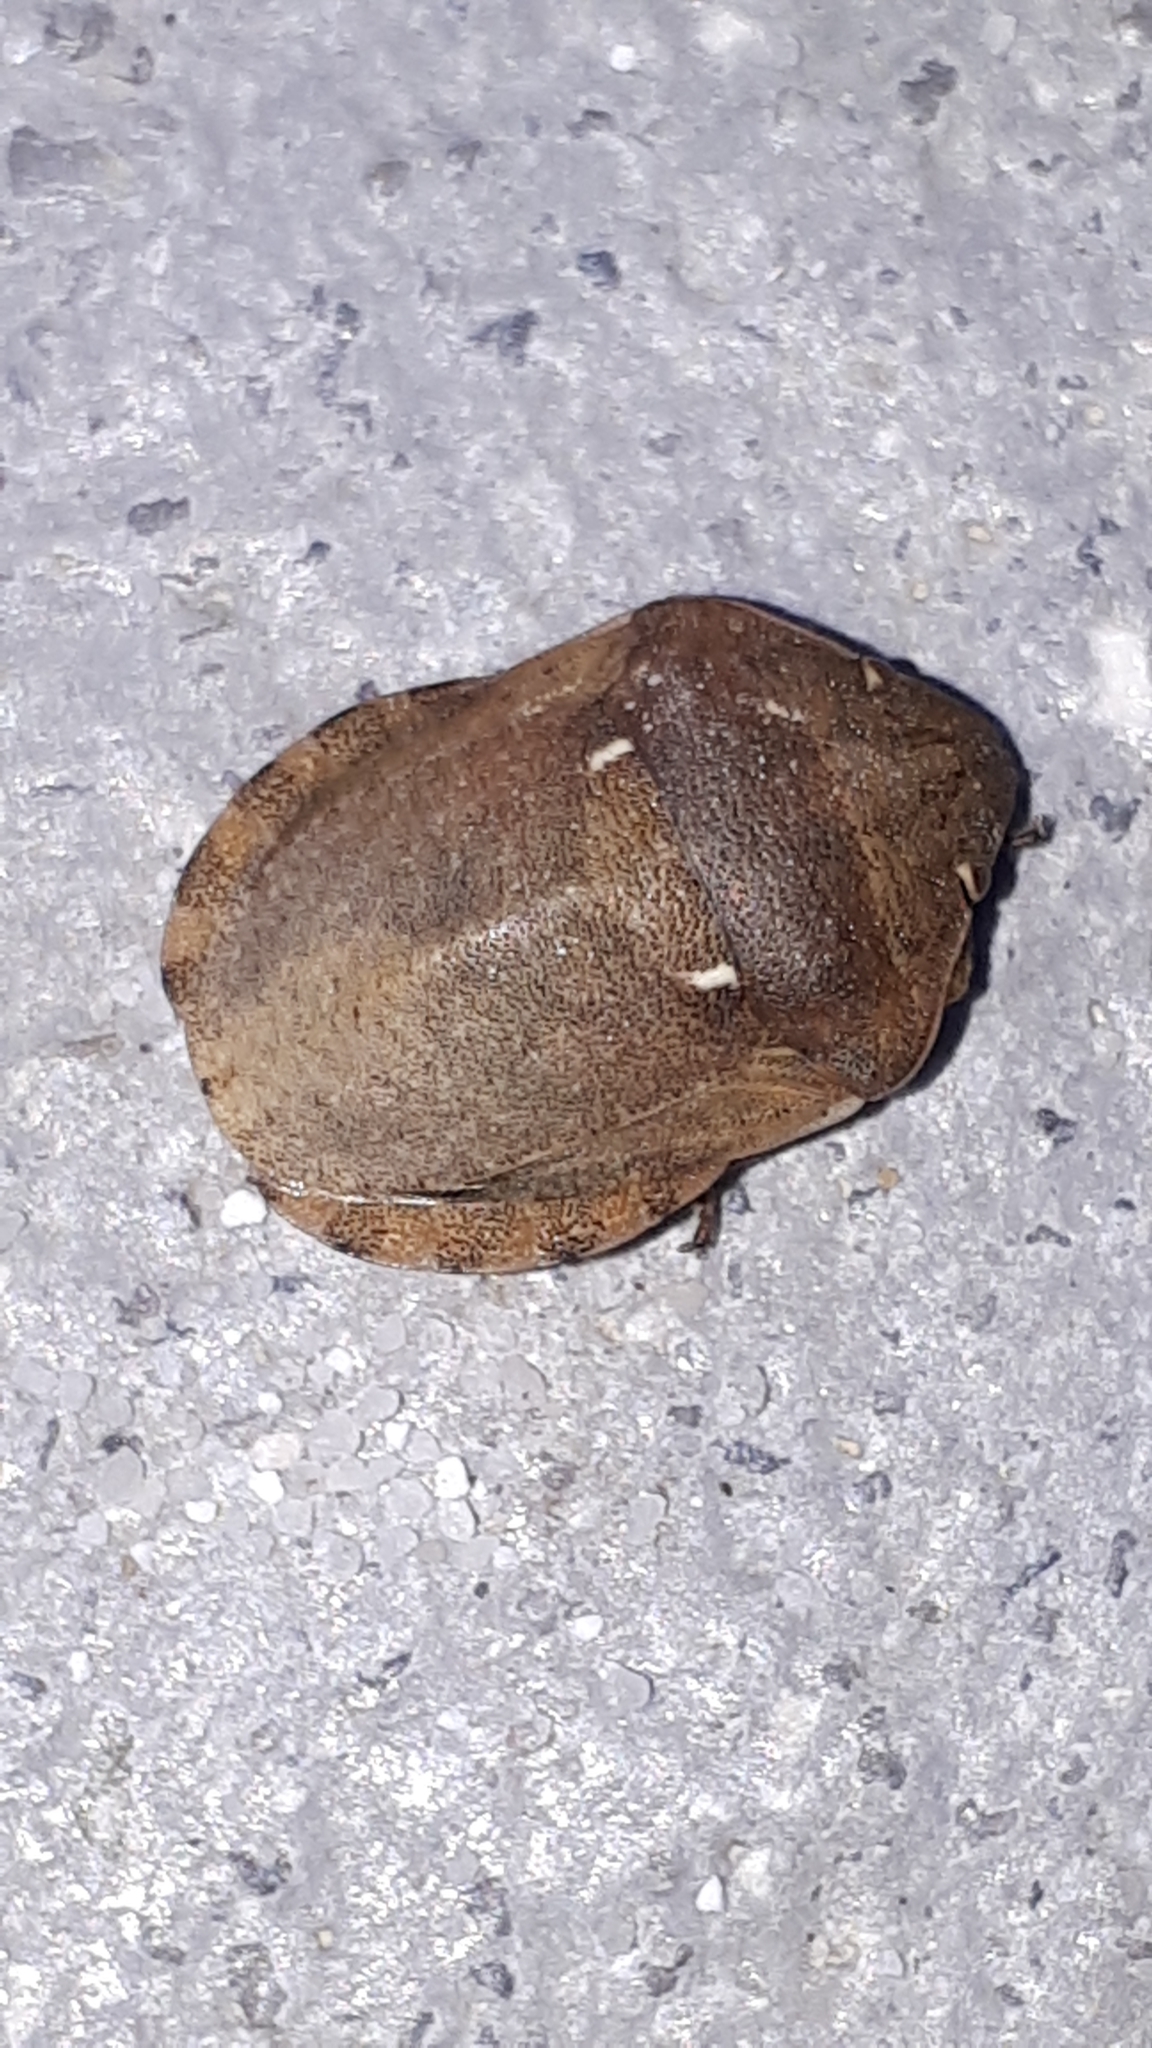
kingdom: Animalia
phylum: Arthropoda
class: Insecta
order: Hemiptera
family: Scutelleridae
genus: Eurygaster
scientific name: Eurygaster maura
